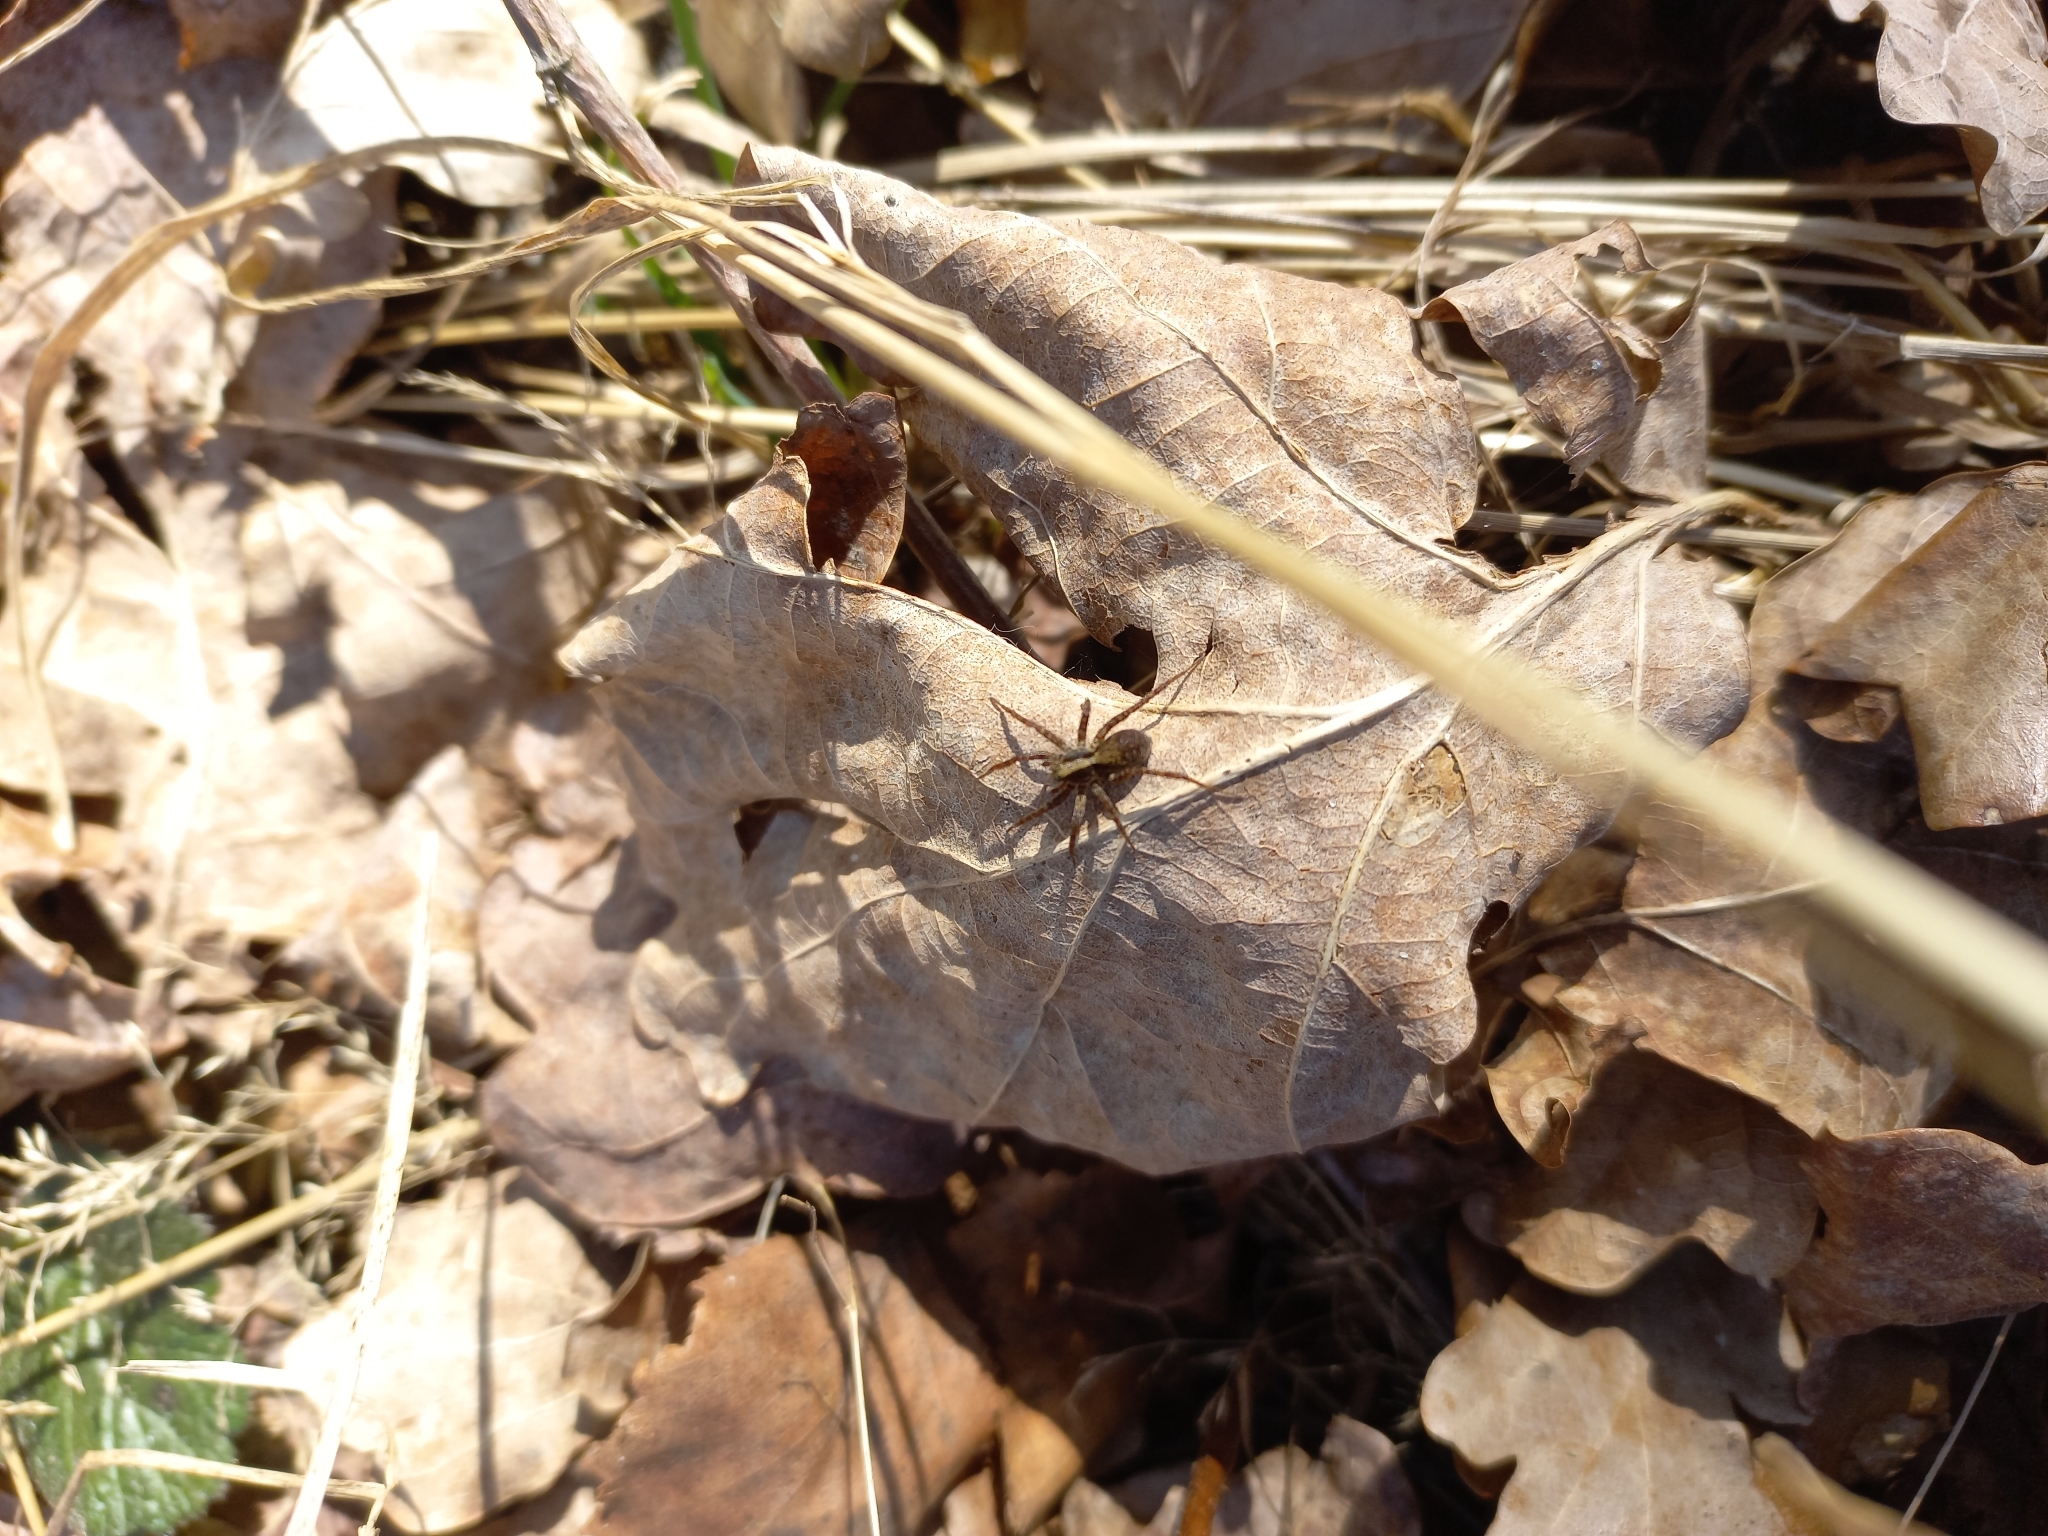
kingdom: Animalia
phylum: Arthropoda
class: Arachnida
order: Araneae
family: Lycosidae
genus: Pardosa
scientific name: Pardosa
